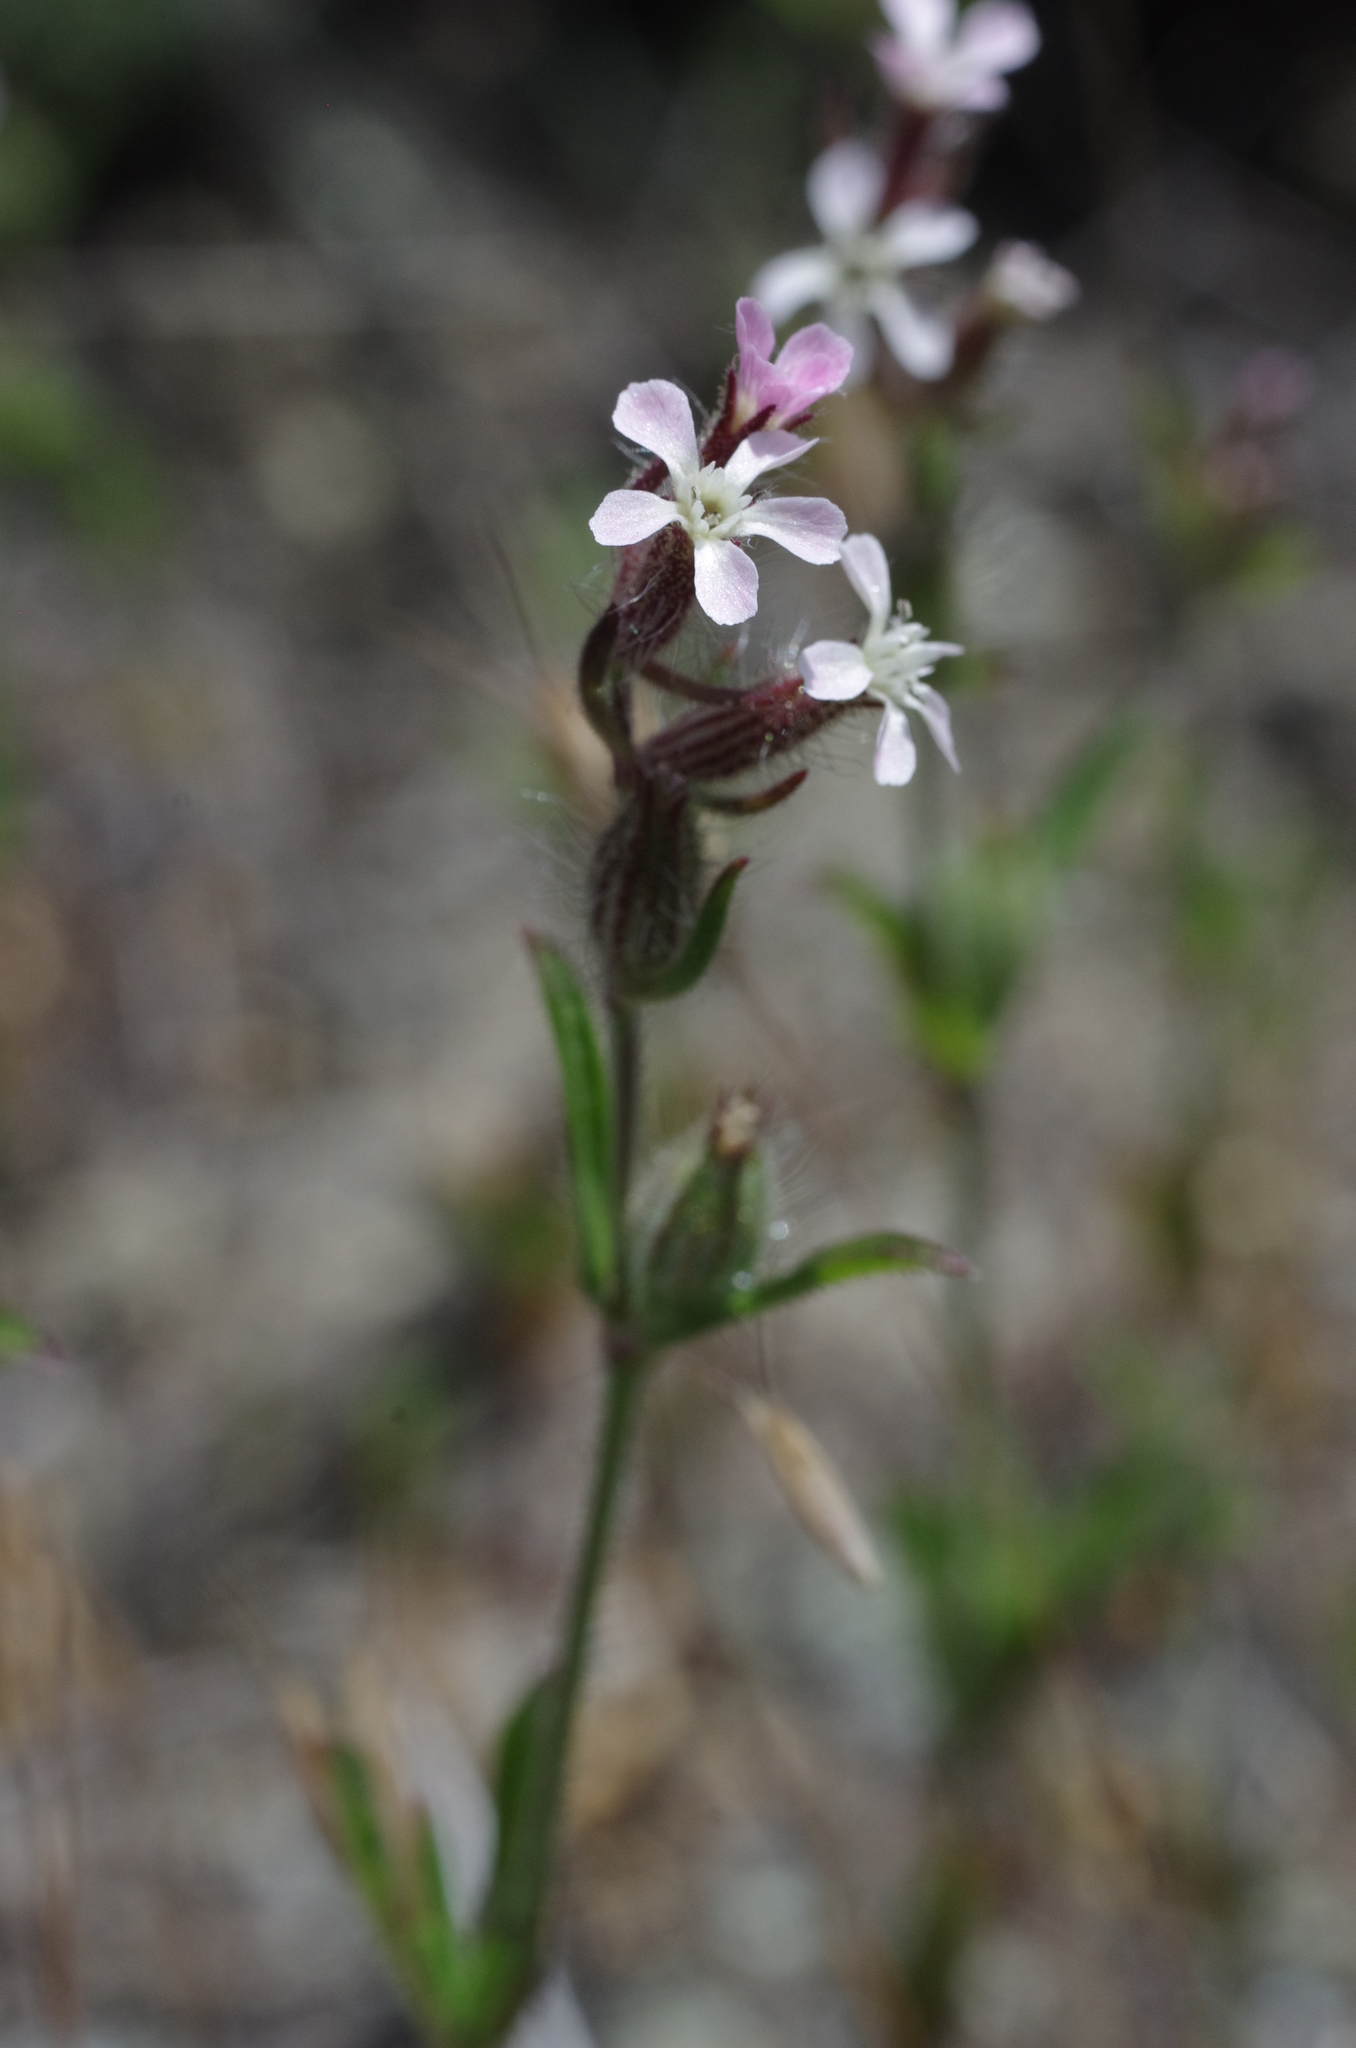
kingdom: Plantae
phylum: Tracheophyta
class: Magnoliopsida
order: Caryophyllales
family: Caryophyllaceae
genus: Silene
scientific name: Silene gallica
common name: Small-flowered catchfly
